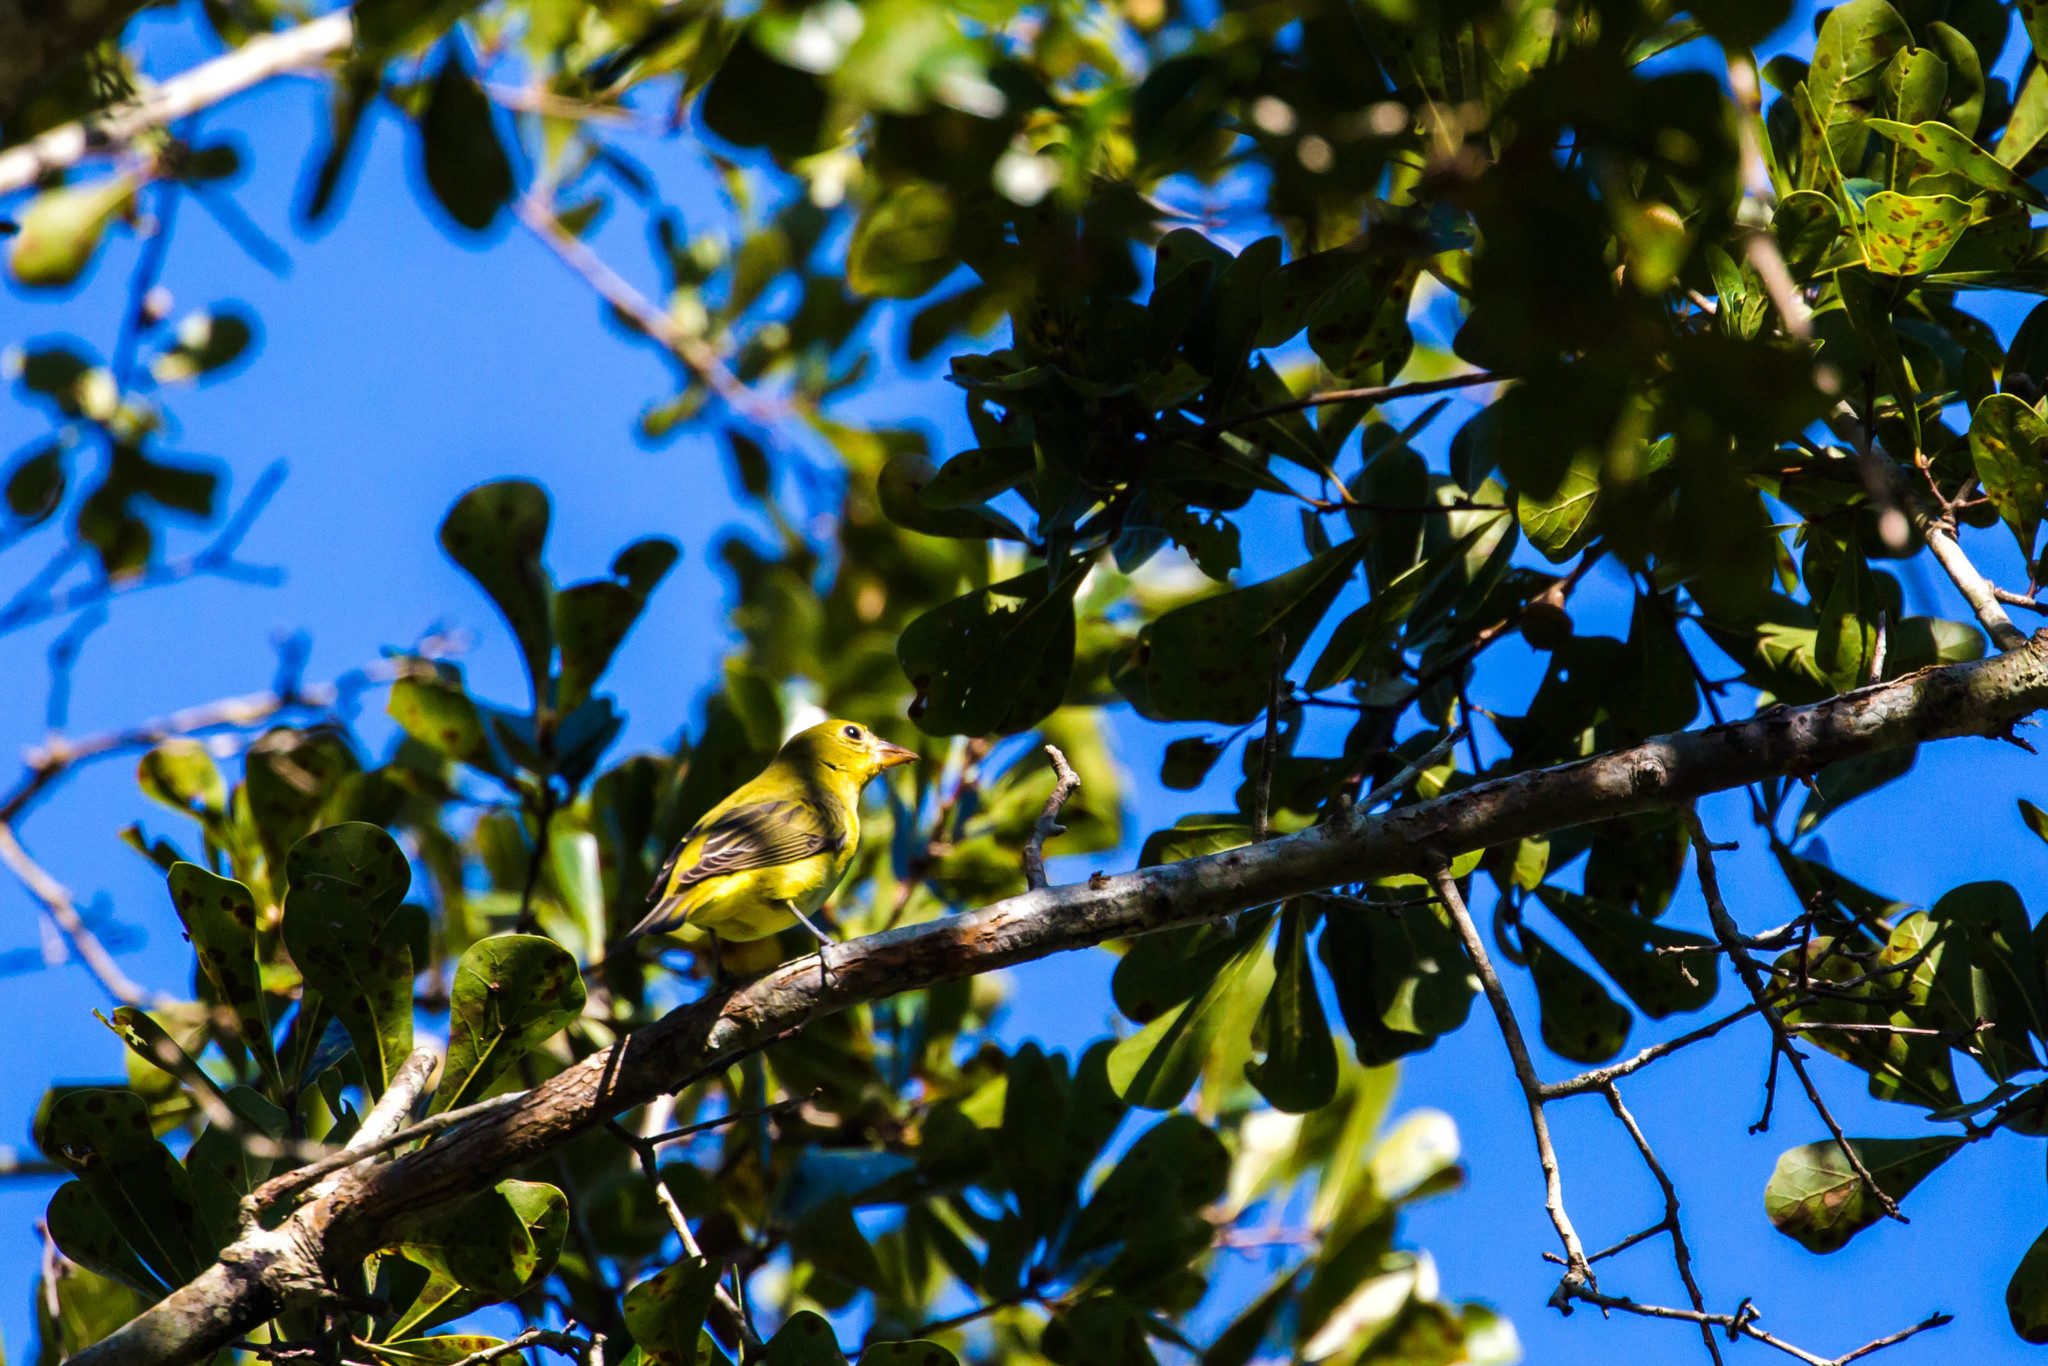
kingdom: Animalia
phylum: Chordata
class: Aves
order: Passeriformes
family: Cardinalidae
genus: Piranga
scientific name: Piranga olivacea
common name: Scarlet tanager
